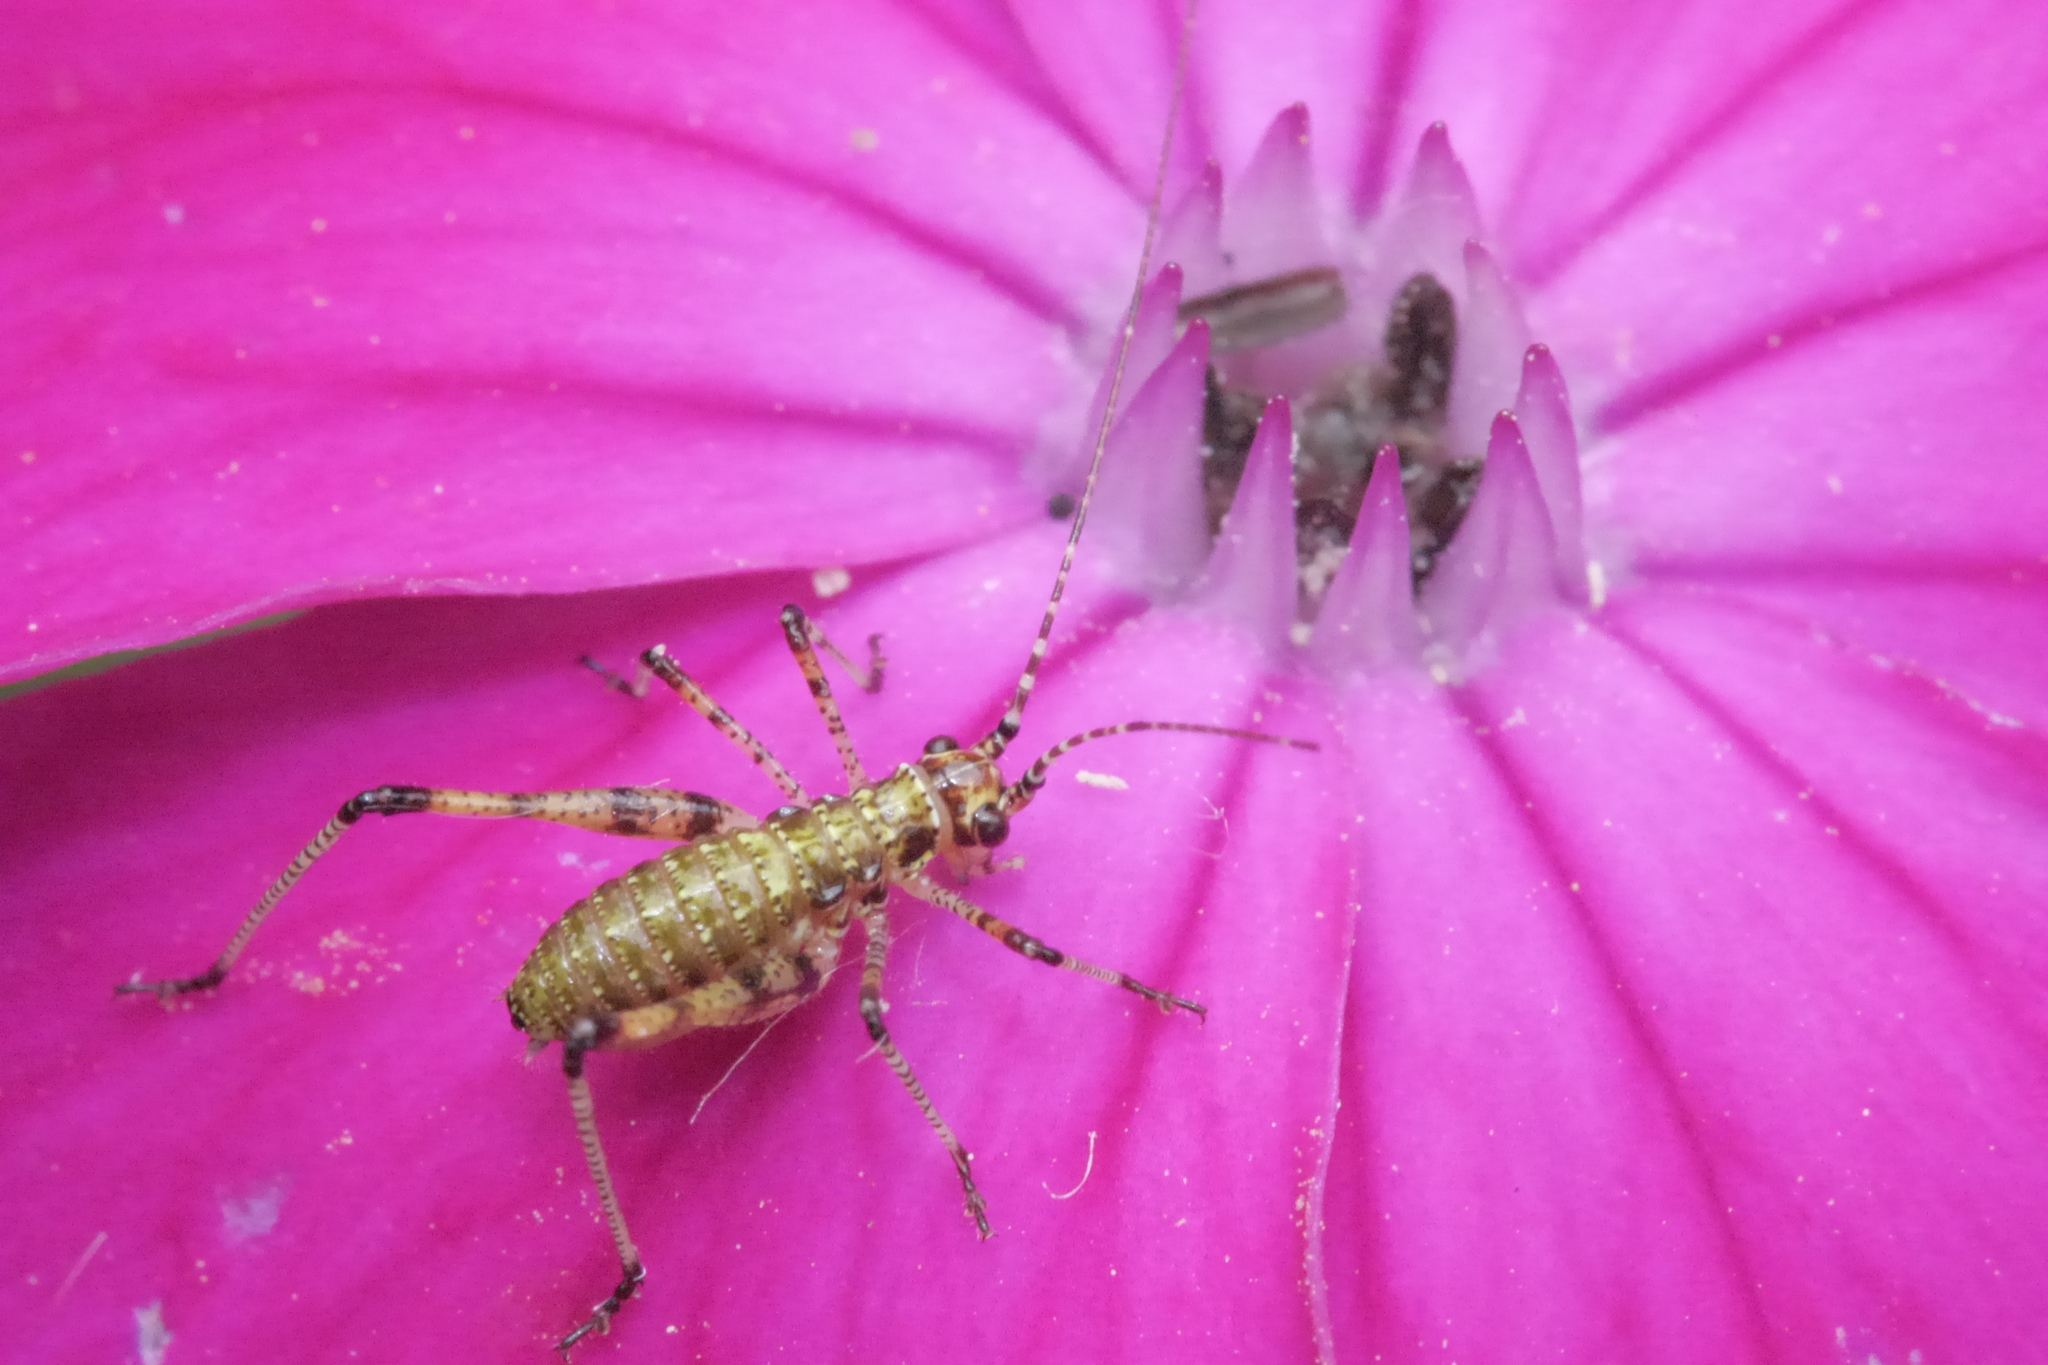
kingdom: Animalia
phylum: Arthropoda
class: Insecta
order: Orthoptera
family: Tettigoniidae
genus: Phaneroptera
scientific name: Phaneroptera nana
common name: Southern sickle bush-cricket
